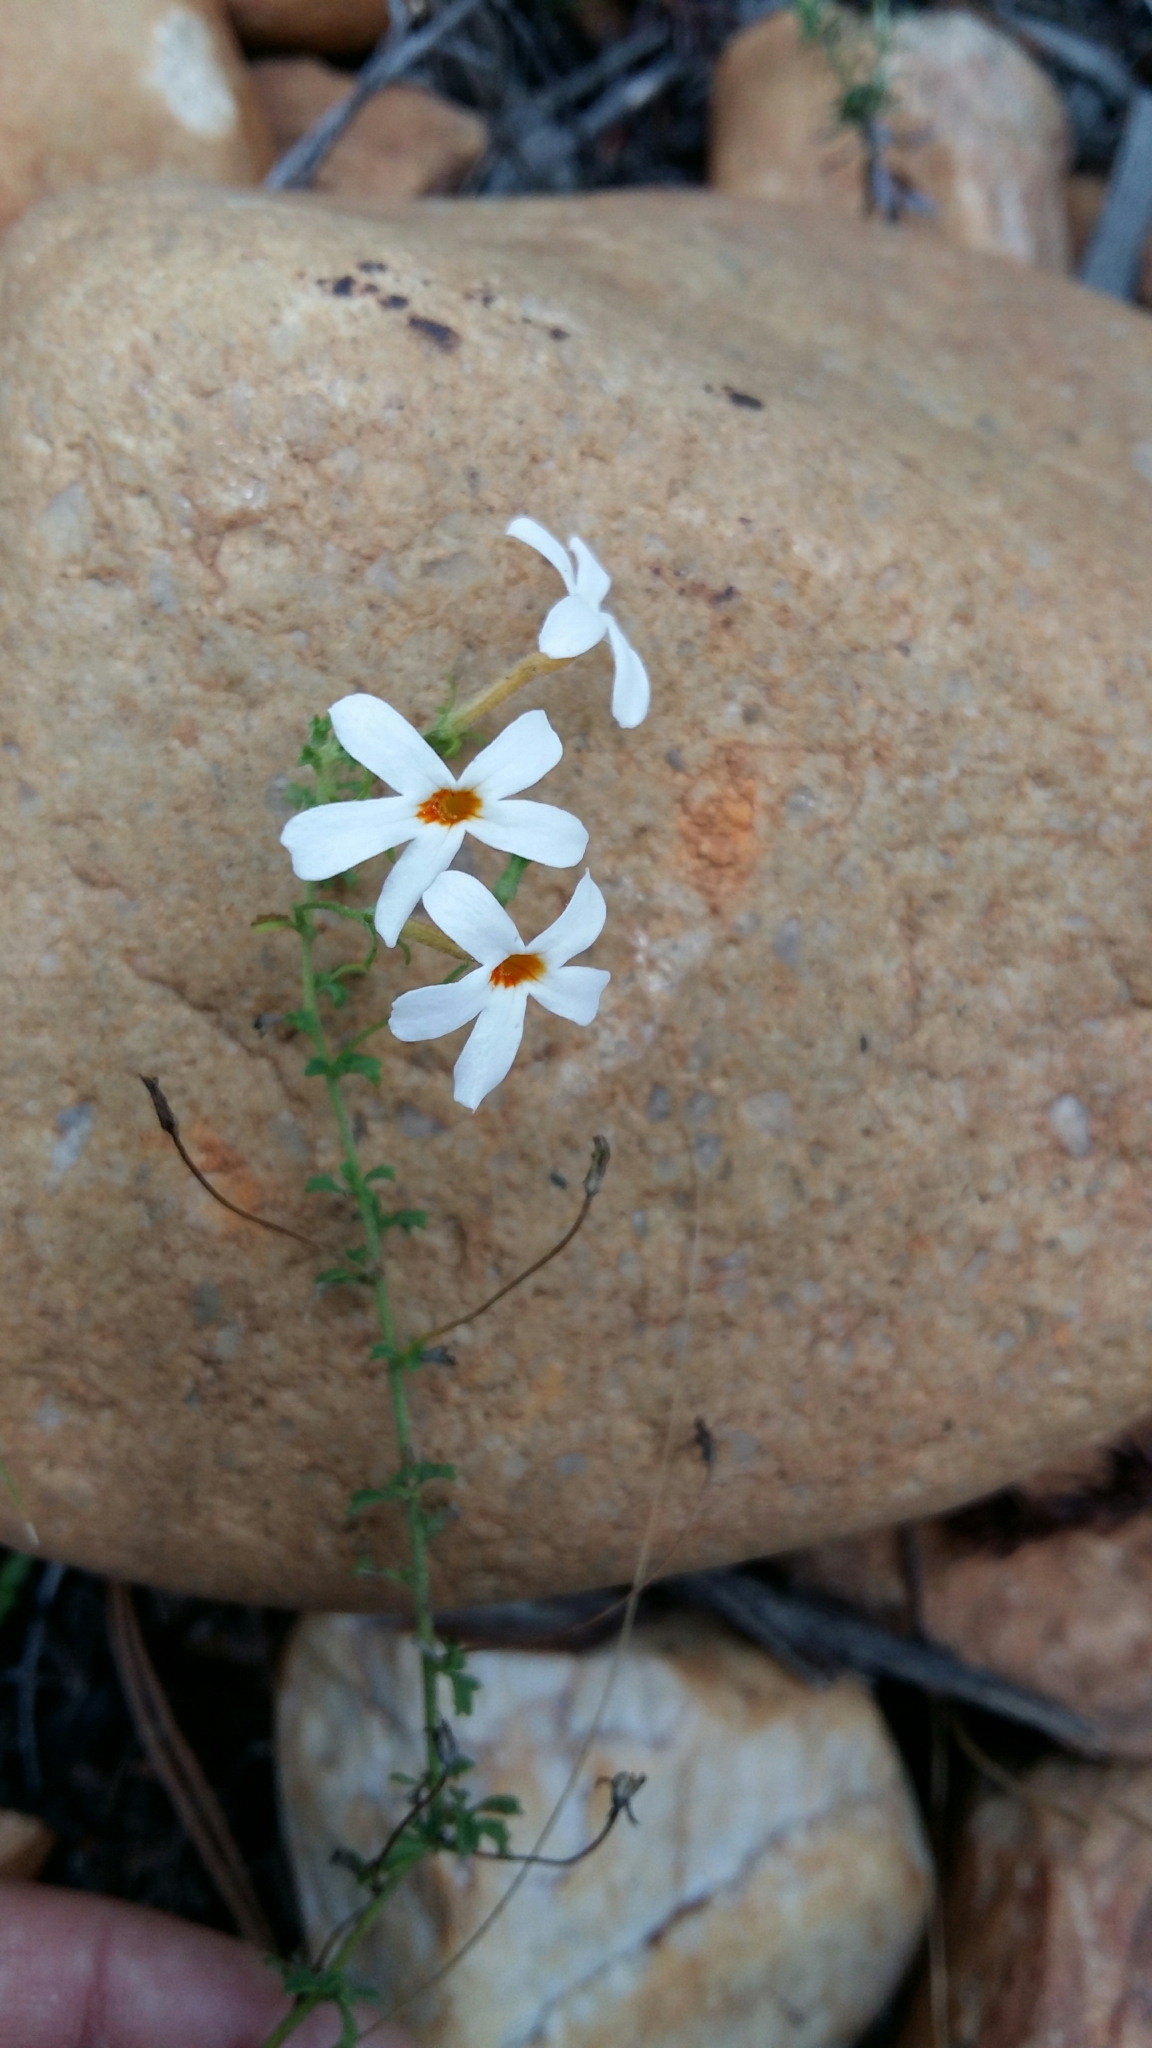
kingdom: Plantae
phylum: Tracheophyta
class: Magnoliopsida
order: Lamiales
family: Scrophulariaceae
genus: Jamesbrittenia
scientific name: Jamesbrittenia argentea
